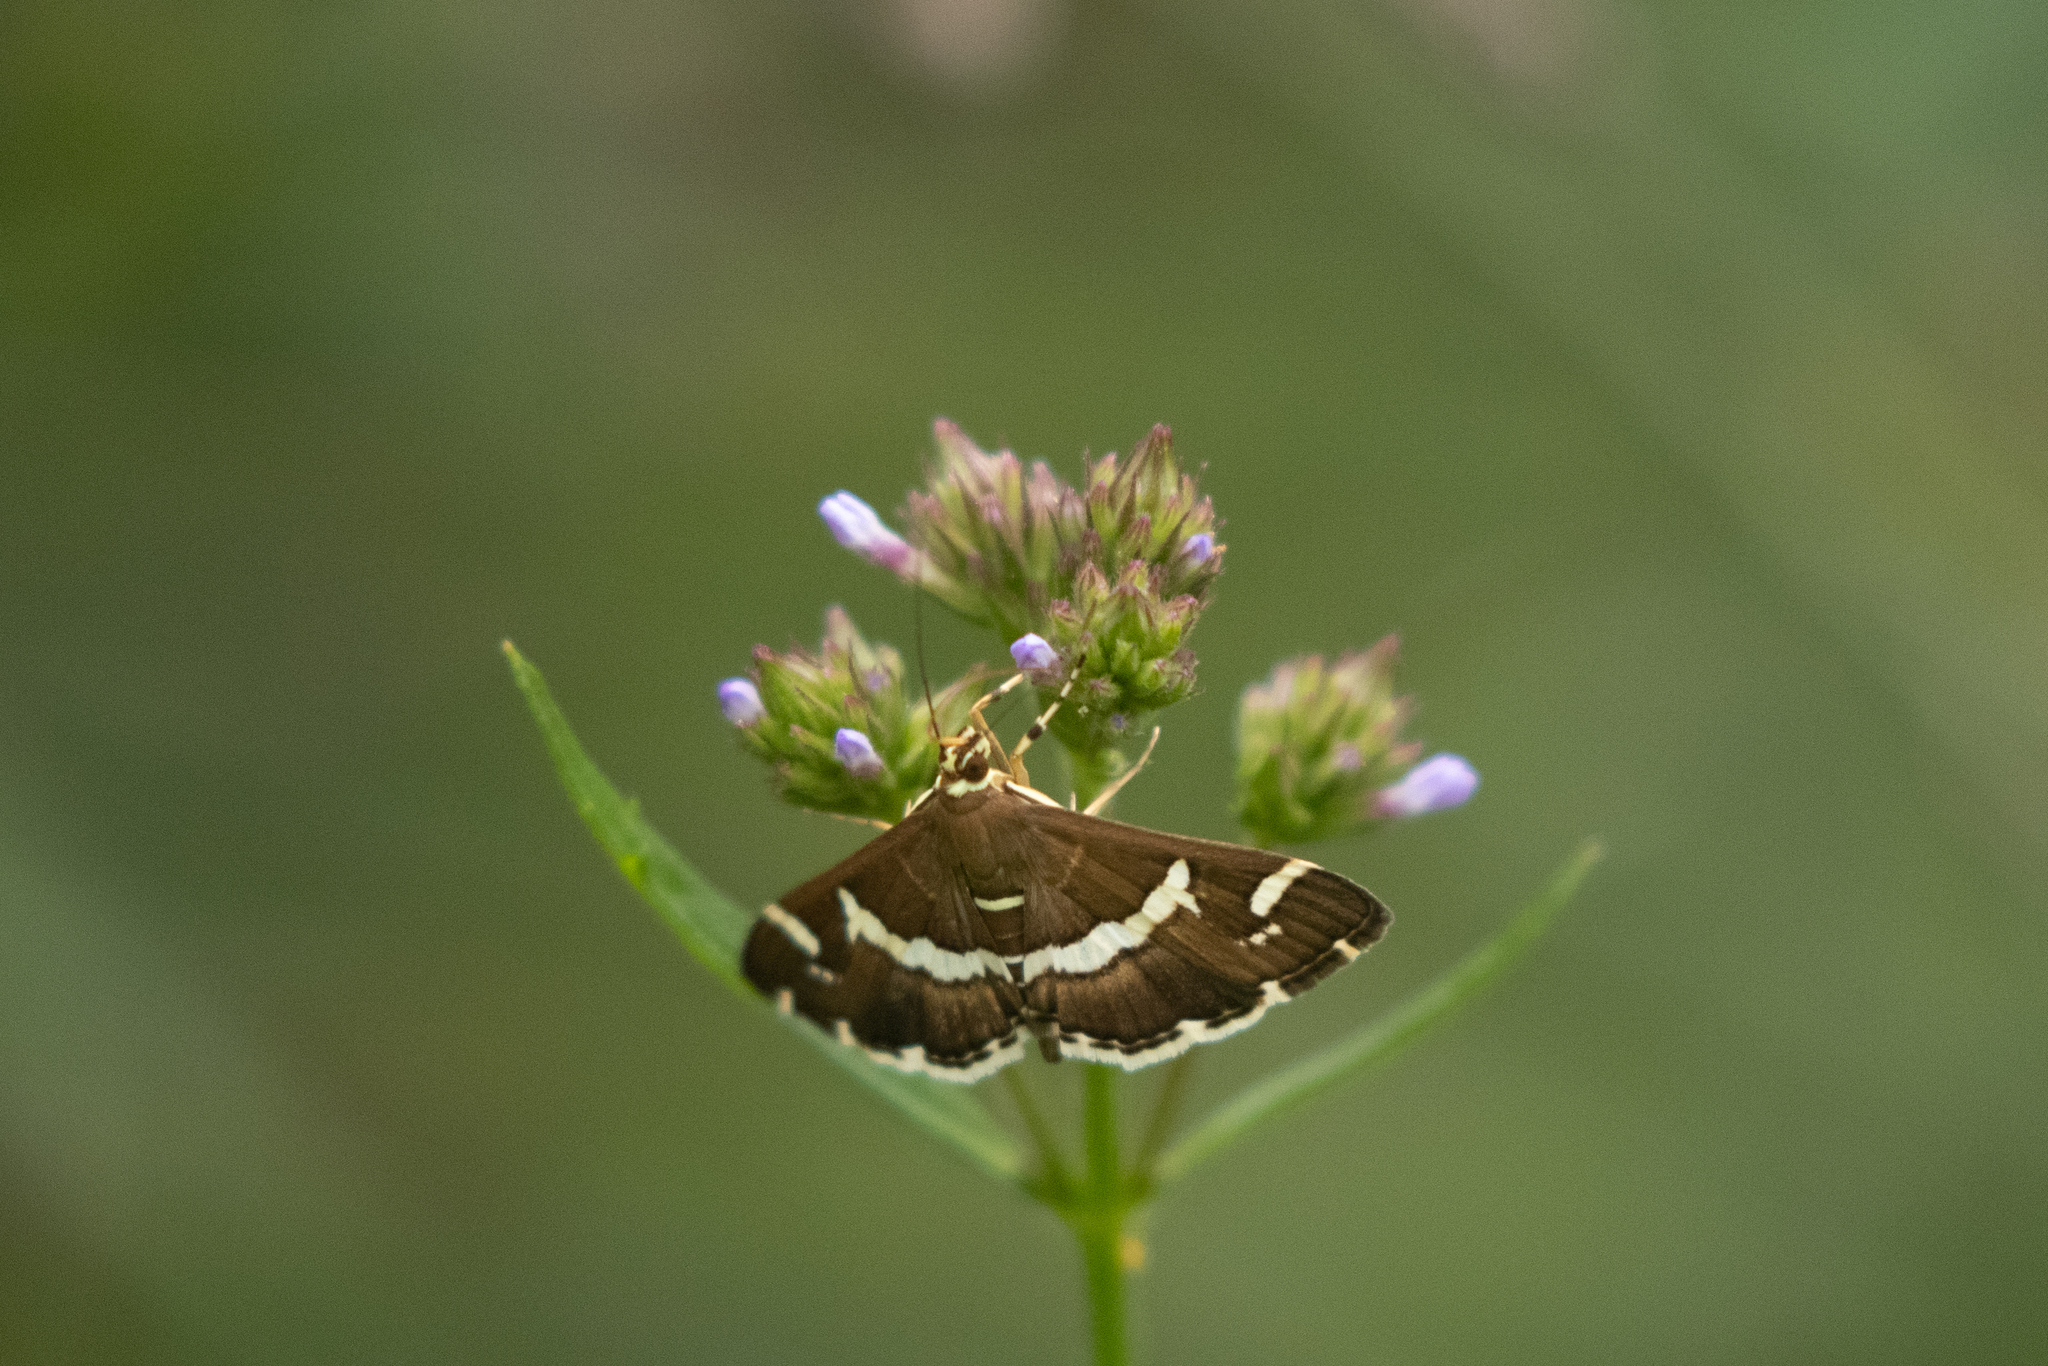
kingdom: Animalia
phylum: Arthropoda
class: Insecta
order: Lepidoptera
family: Crambidae
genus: Spoladea
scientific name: Spoladea recurvalis
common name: Beet webworm moth
